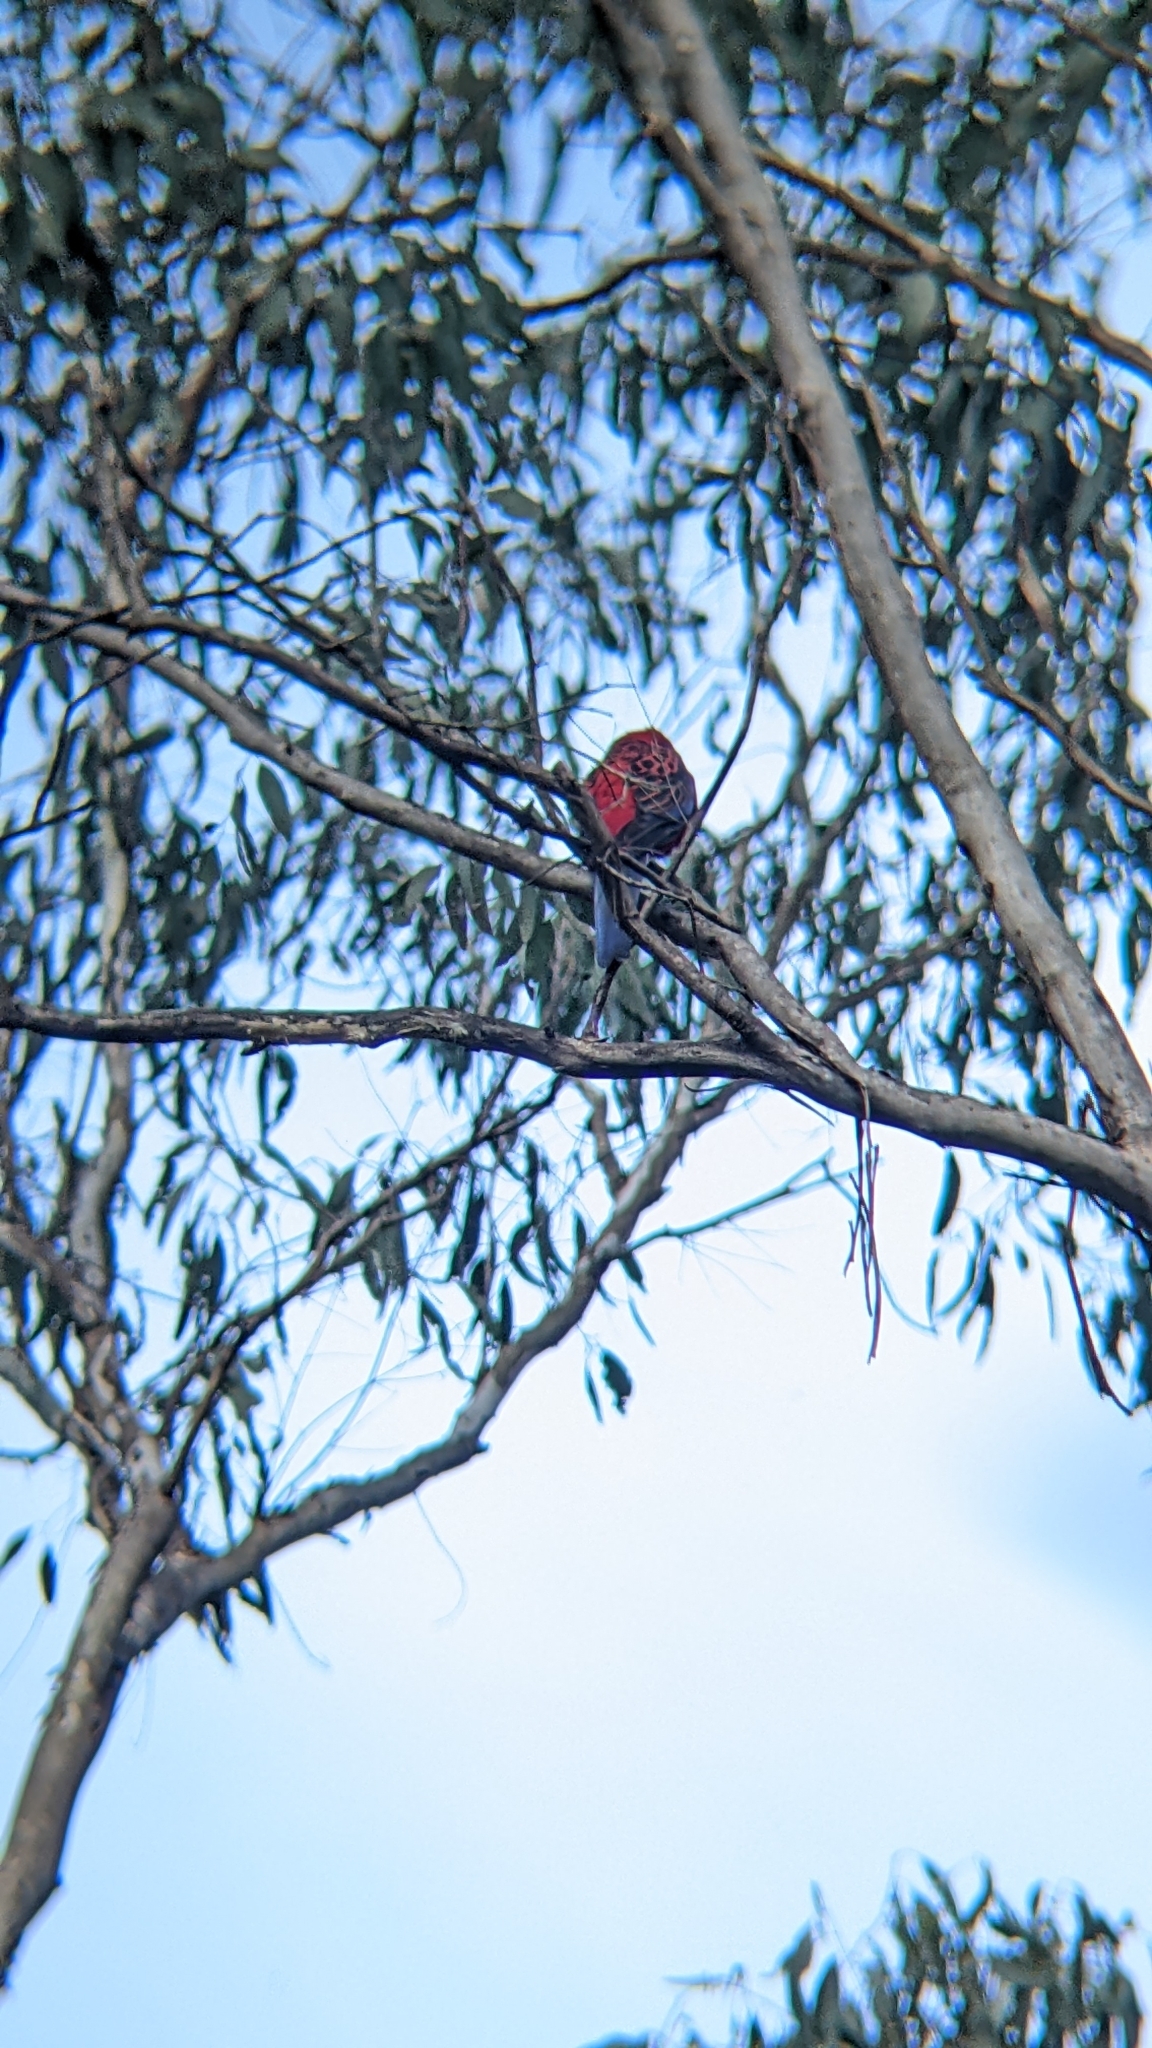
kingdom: Animalia
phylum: Chordata
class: Aves
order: Psittaciformes
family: Psittacidae
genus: Platycercus
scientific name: Platycercus elegans
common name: Crimson rosella
